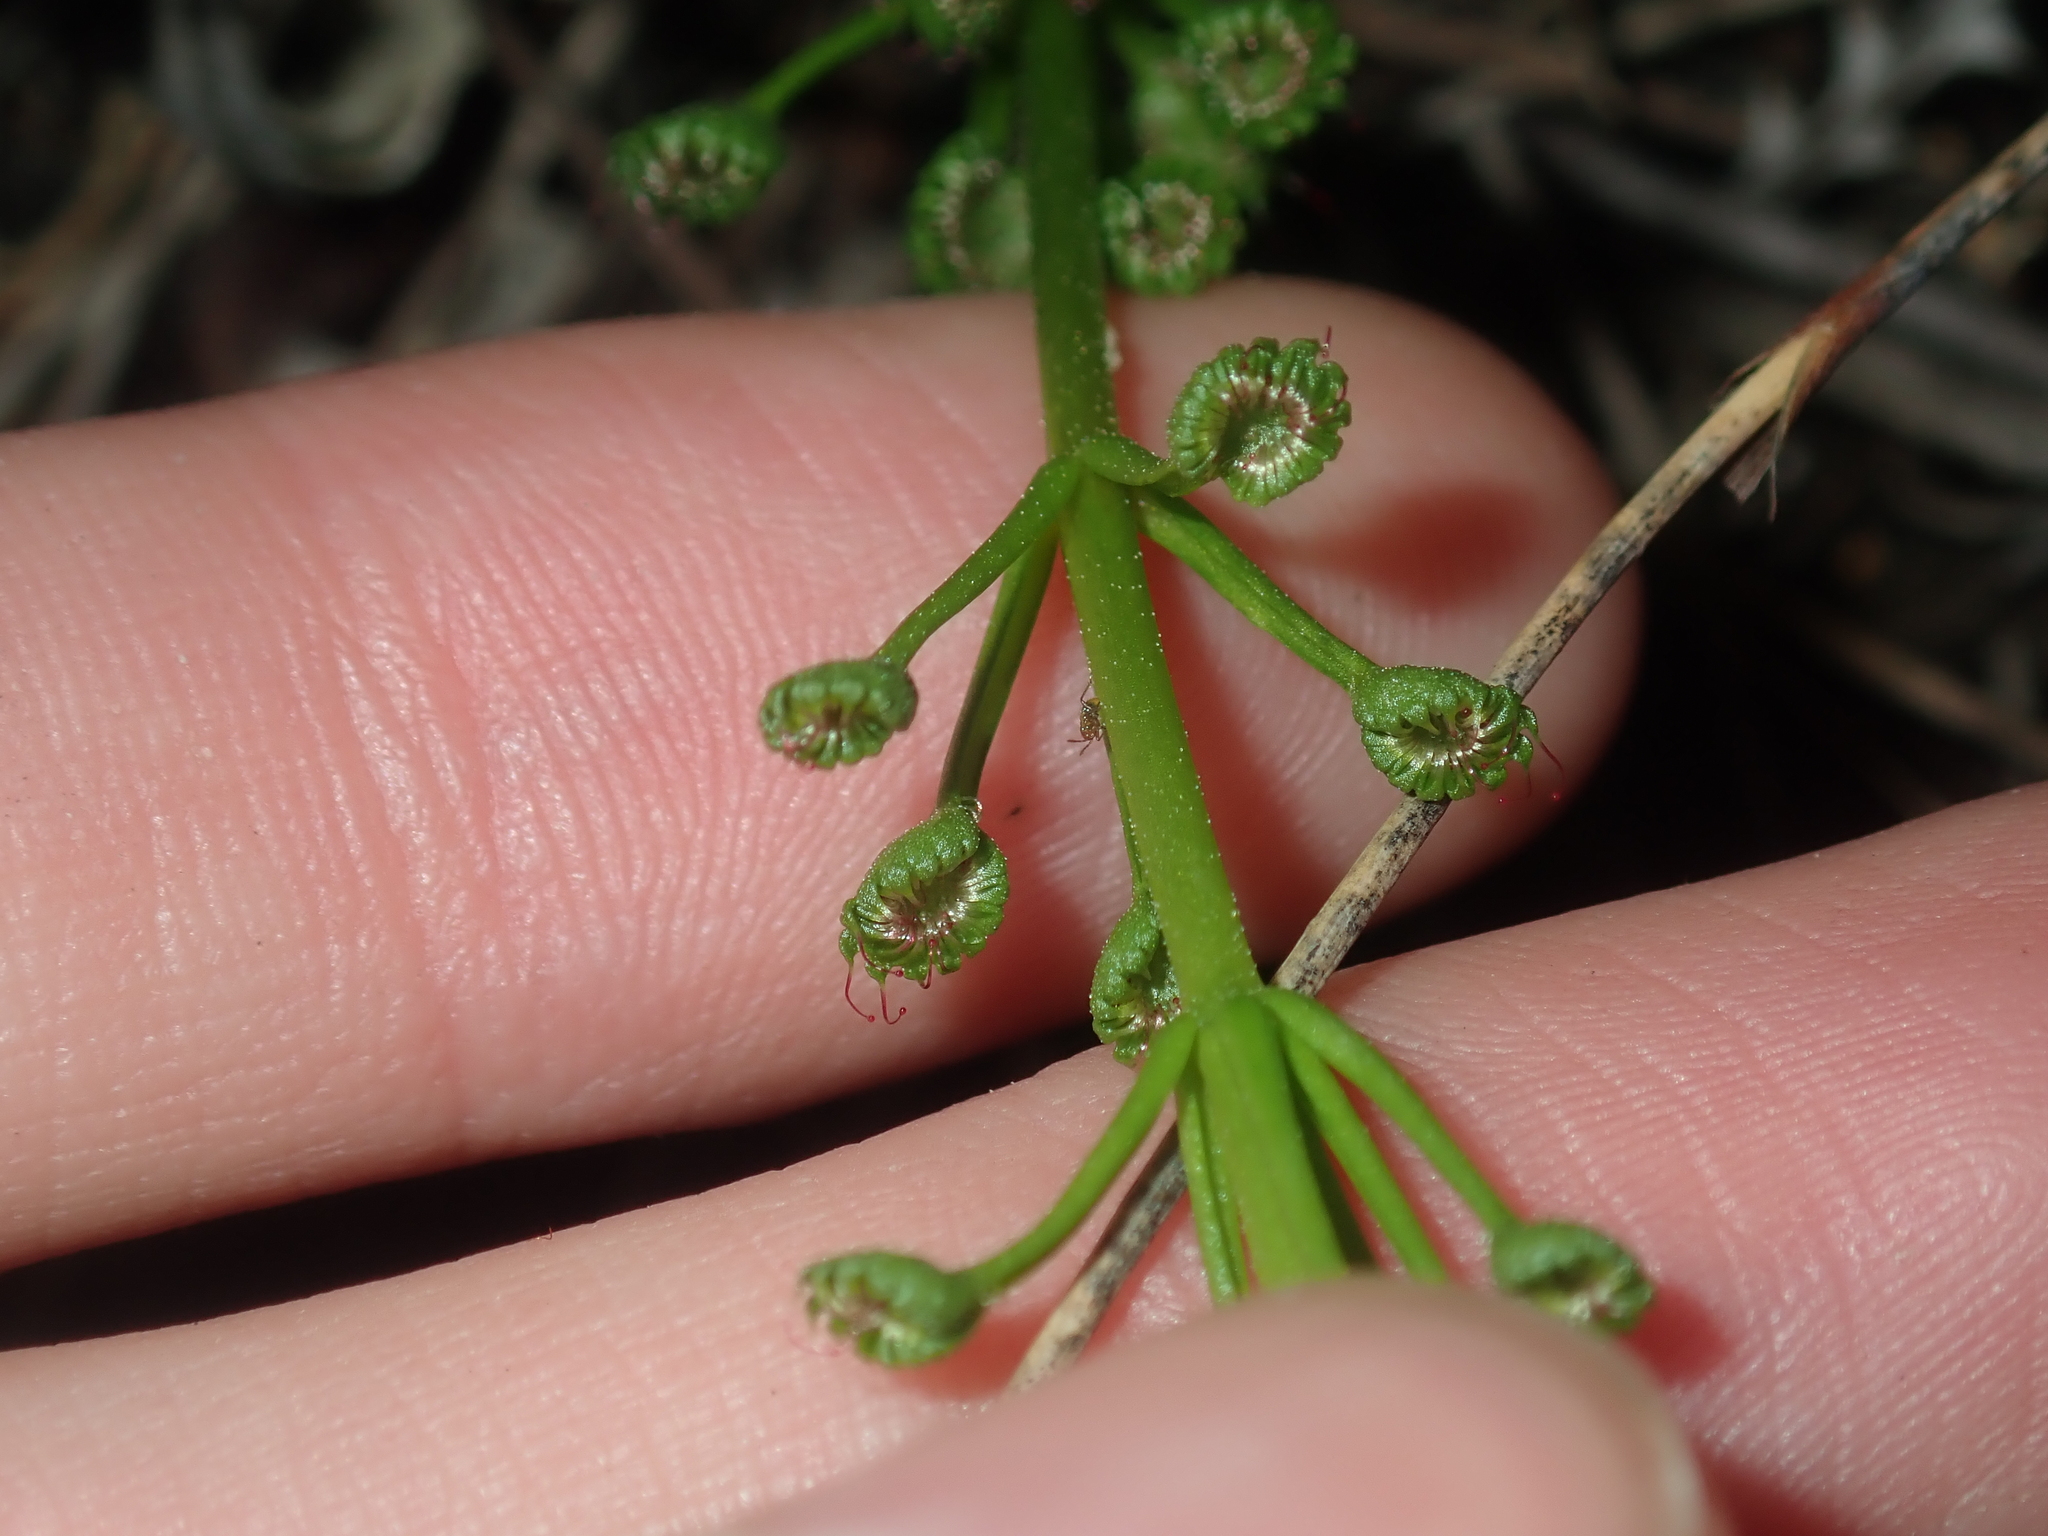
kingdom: Plantae
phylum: Tracheophyta
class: Magnoliopsida
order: Caryophyllales
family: Droseraceae
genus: Drosera
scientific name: Drosera stolonifera
